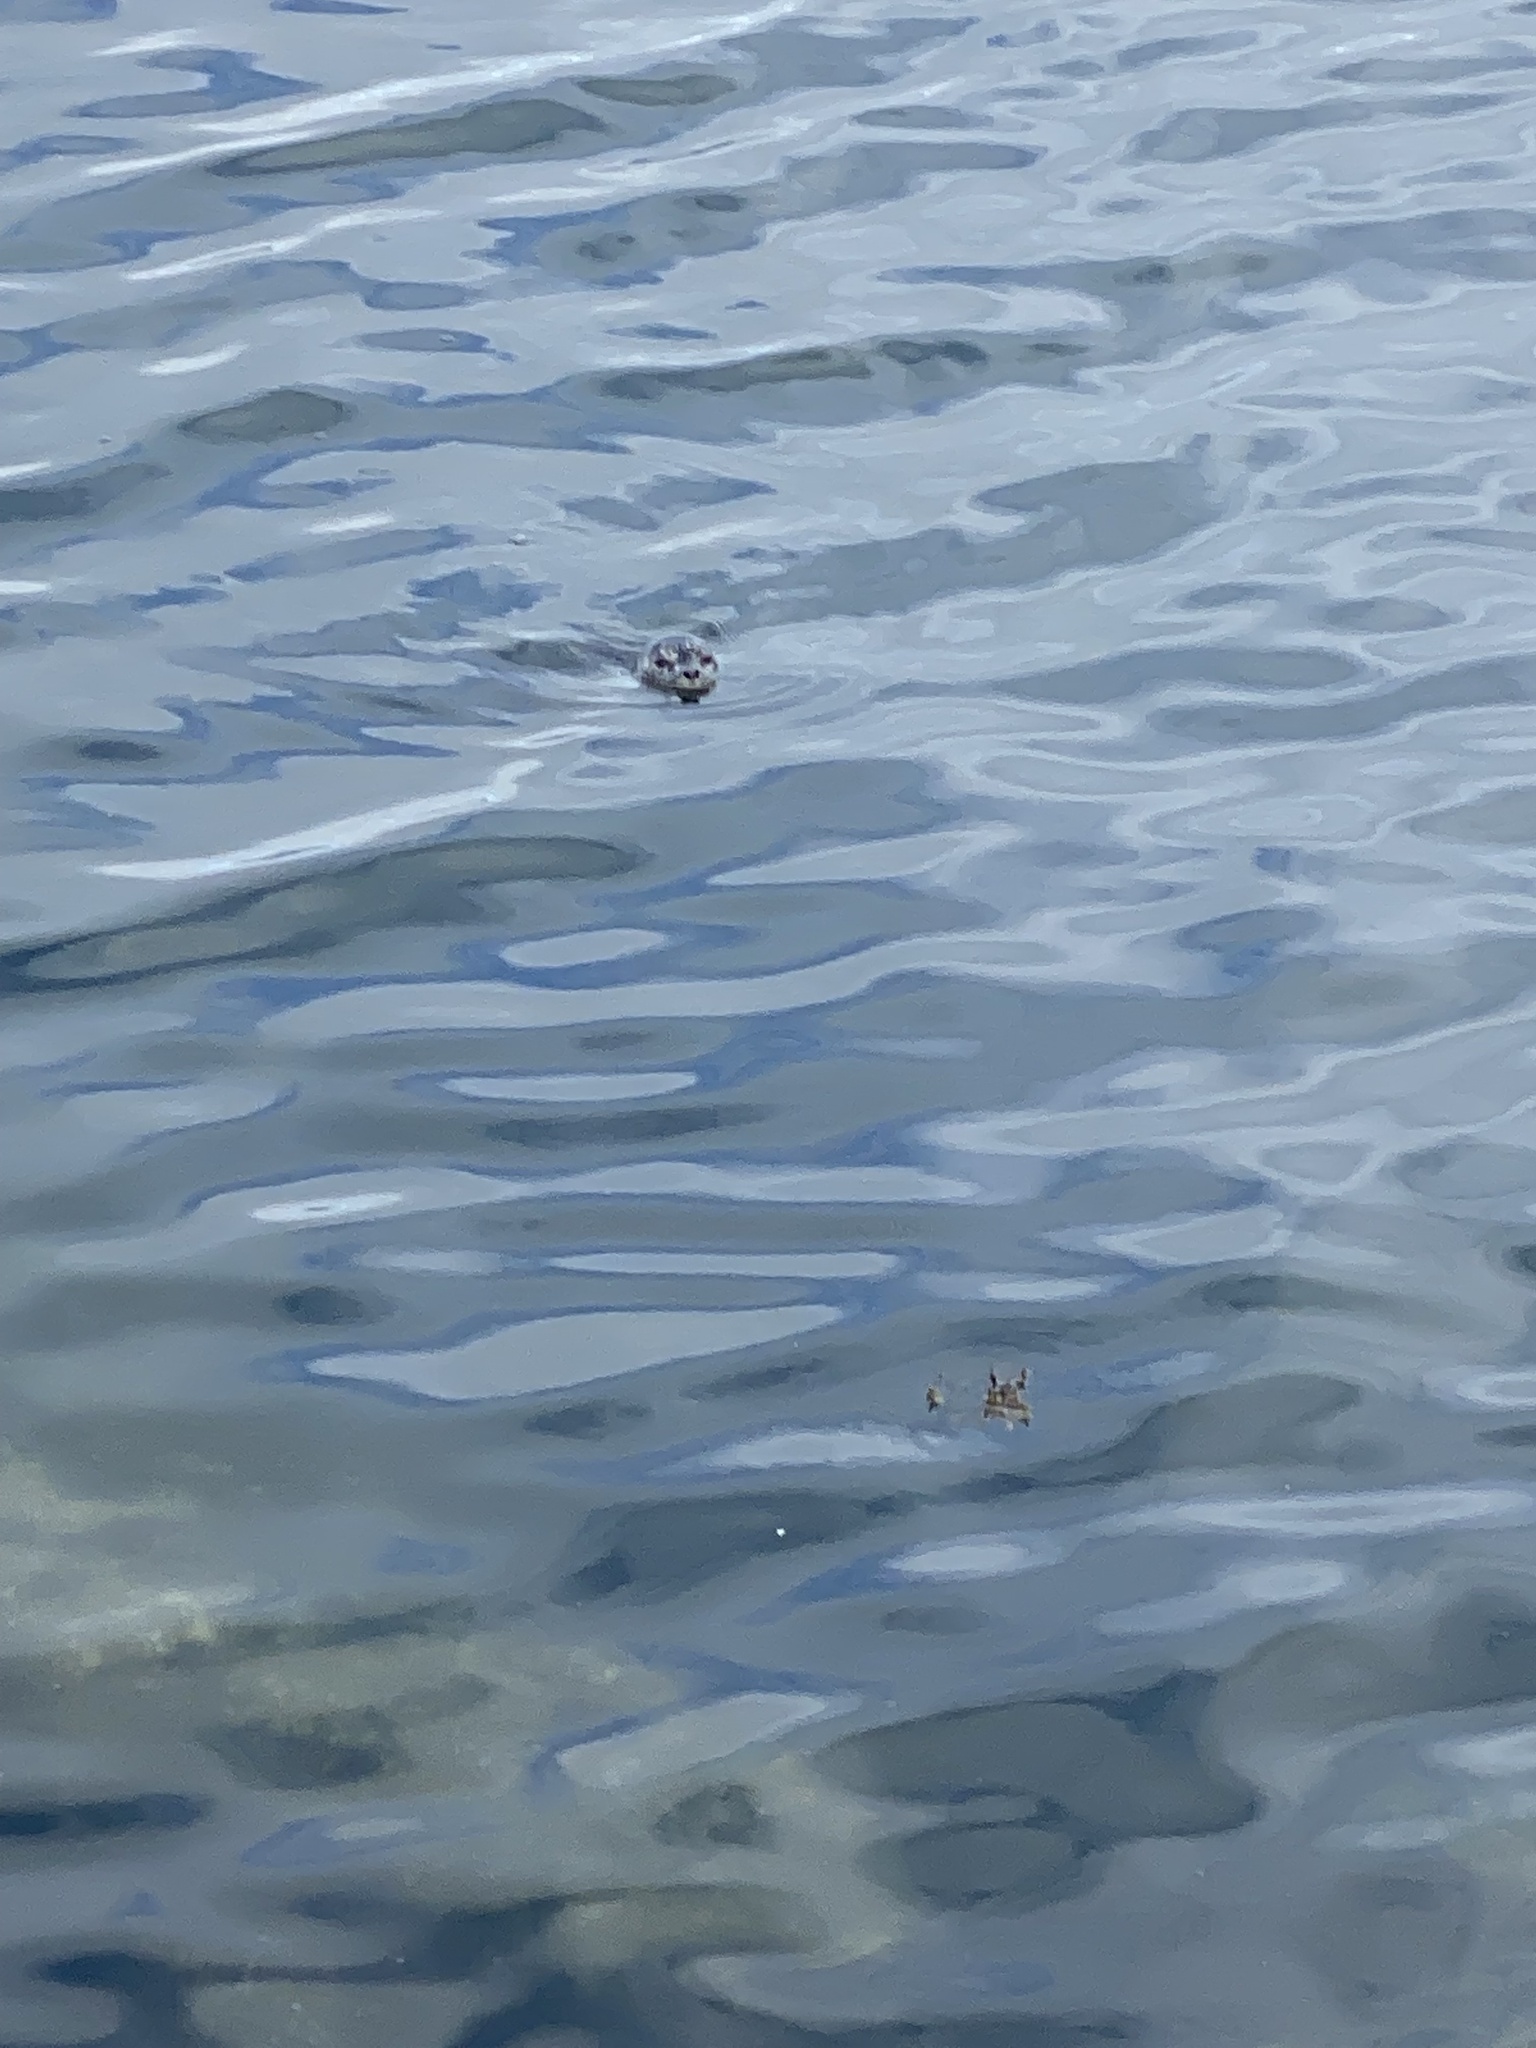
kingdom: Animalia
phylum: Chordata
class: Mammalia
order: Carnivora
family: Phocidae
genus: Phoca
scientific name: Phoca vitulina
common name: Harbor seal
